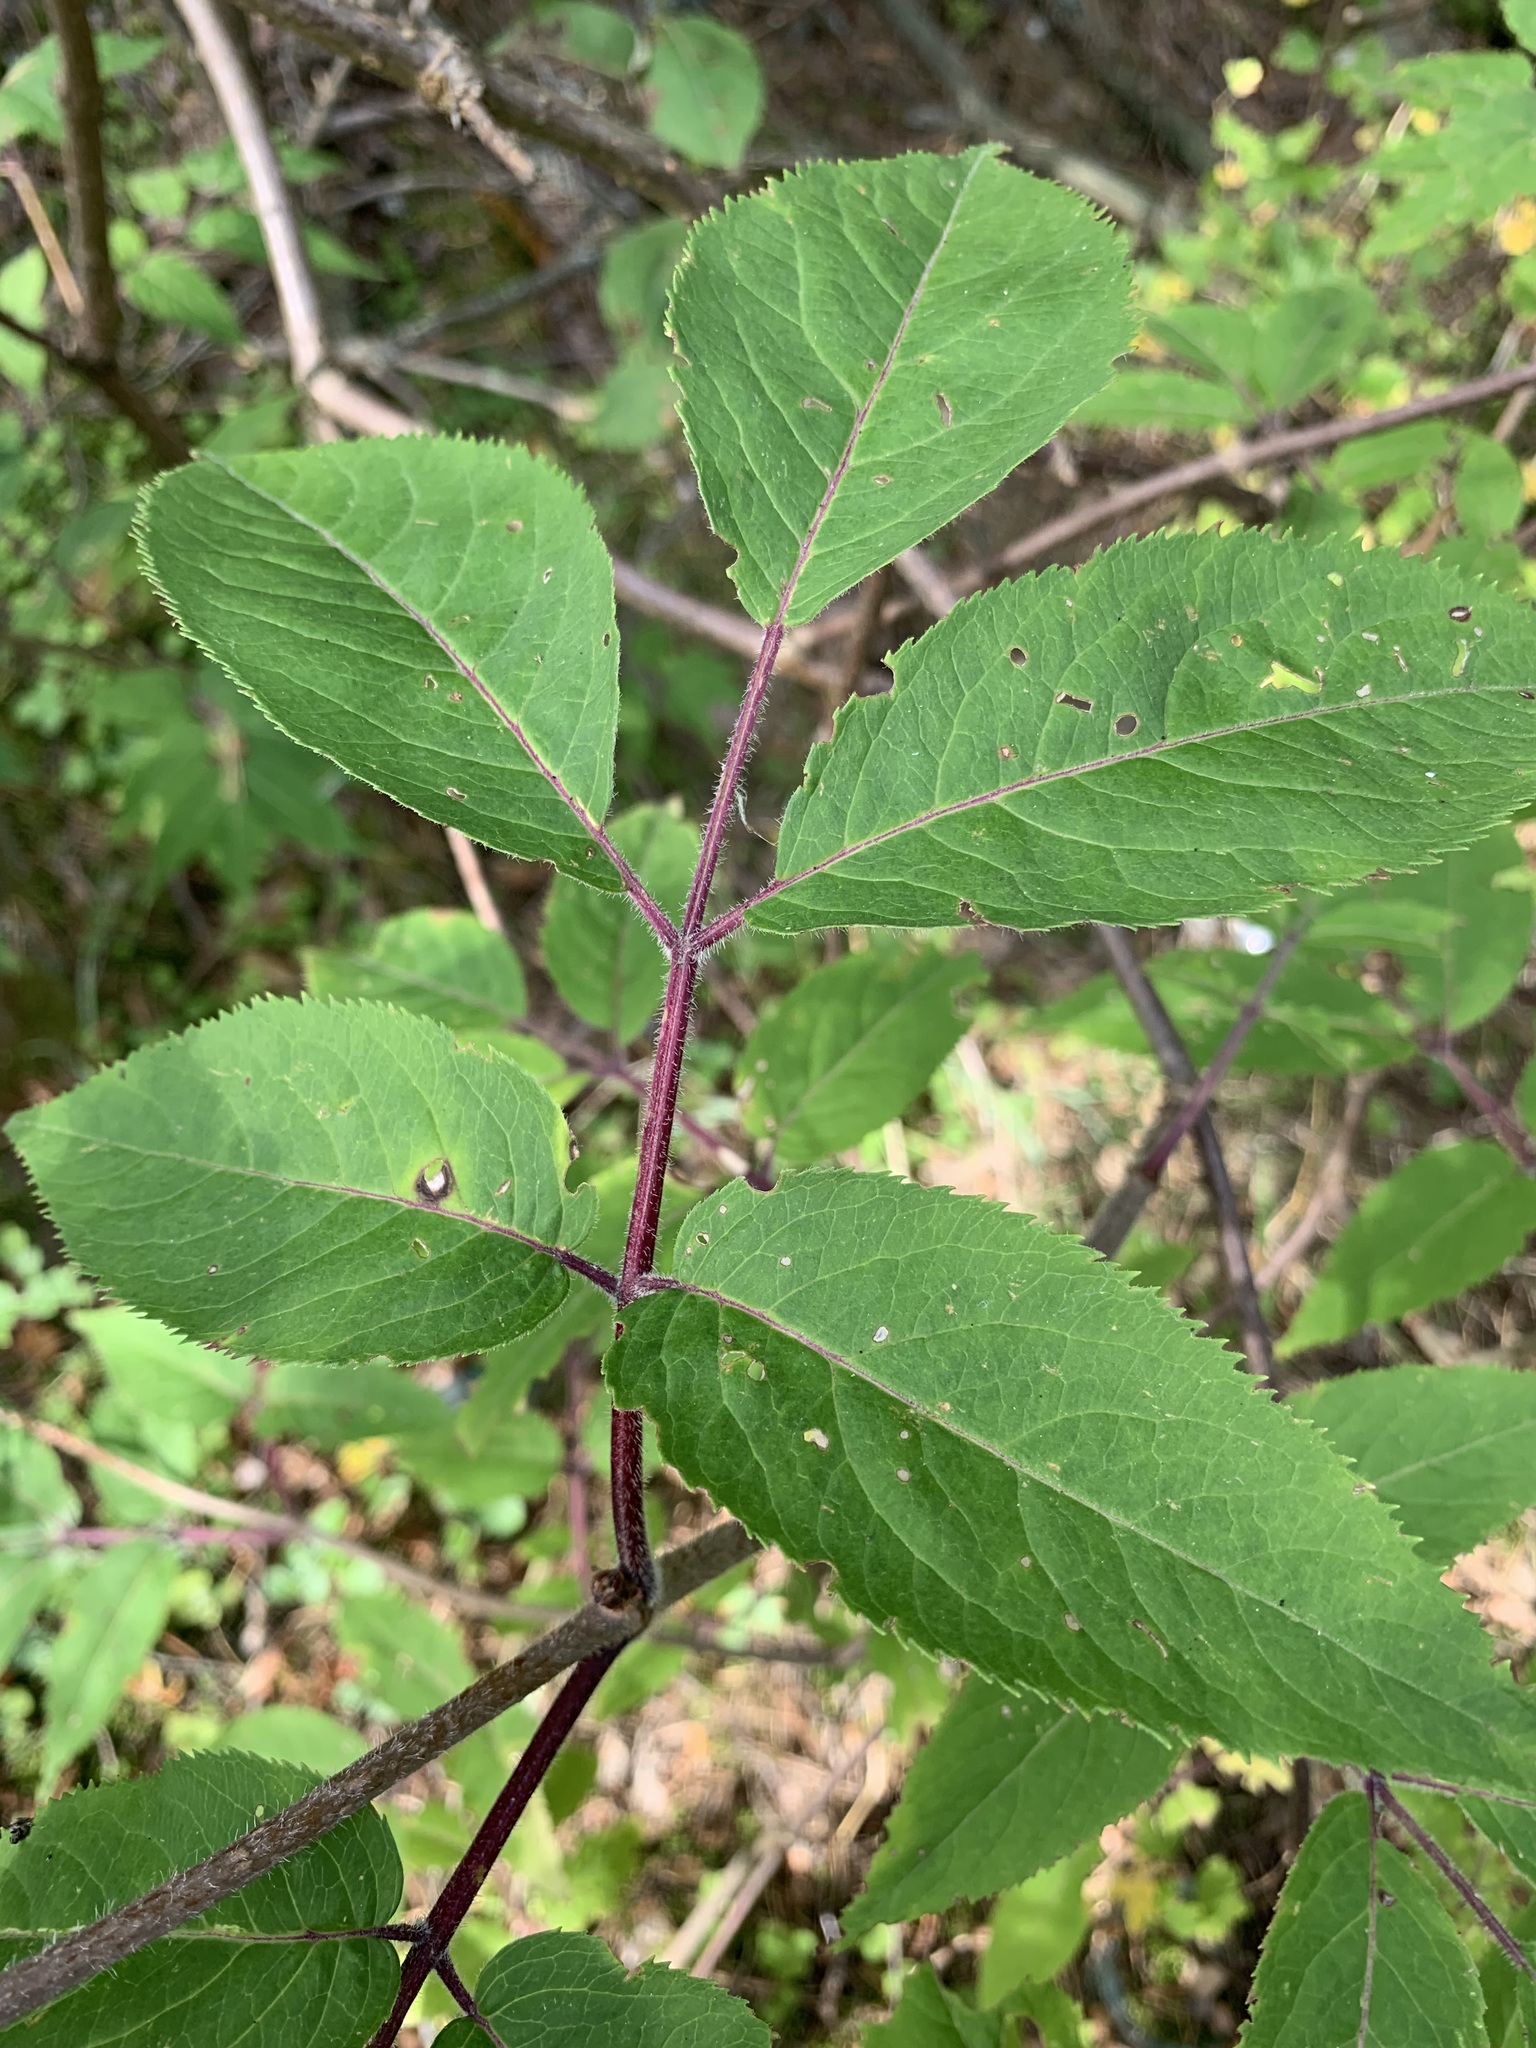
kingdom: Plantae
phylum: Tracheophyta
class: Magnoliopsida
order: Dipsacales
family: Viburnaceae
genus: Sambucus
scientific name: Sambucus sibirica
